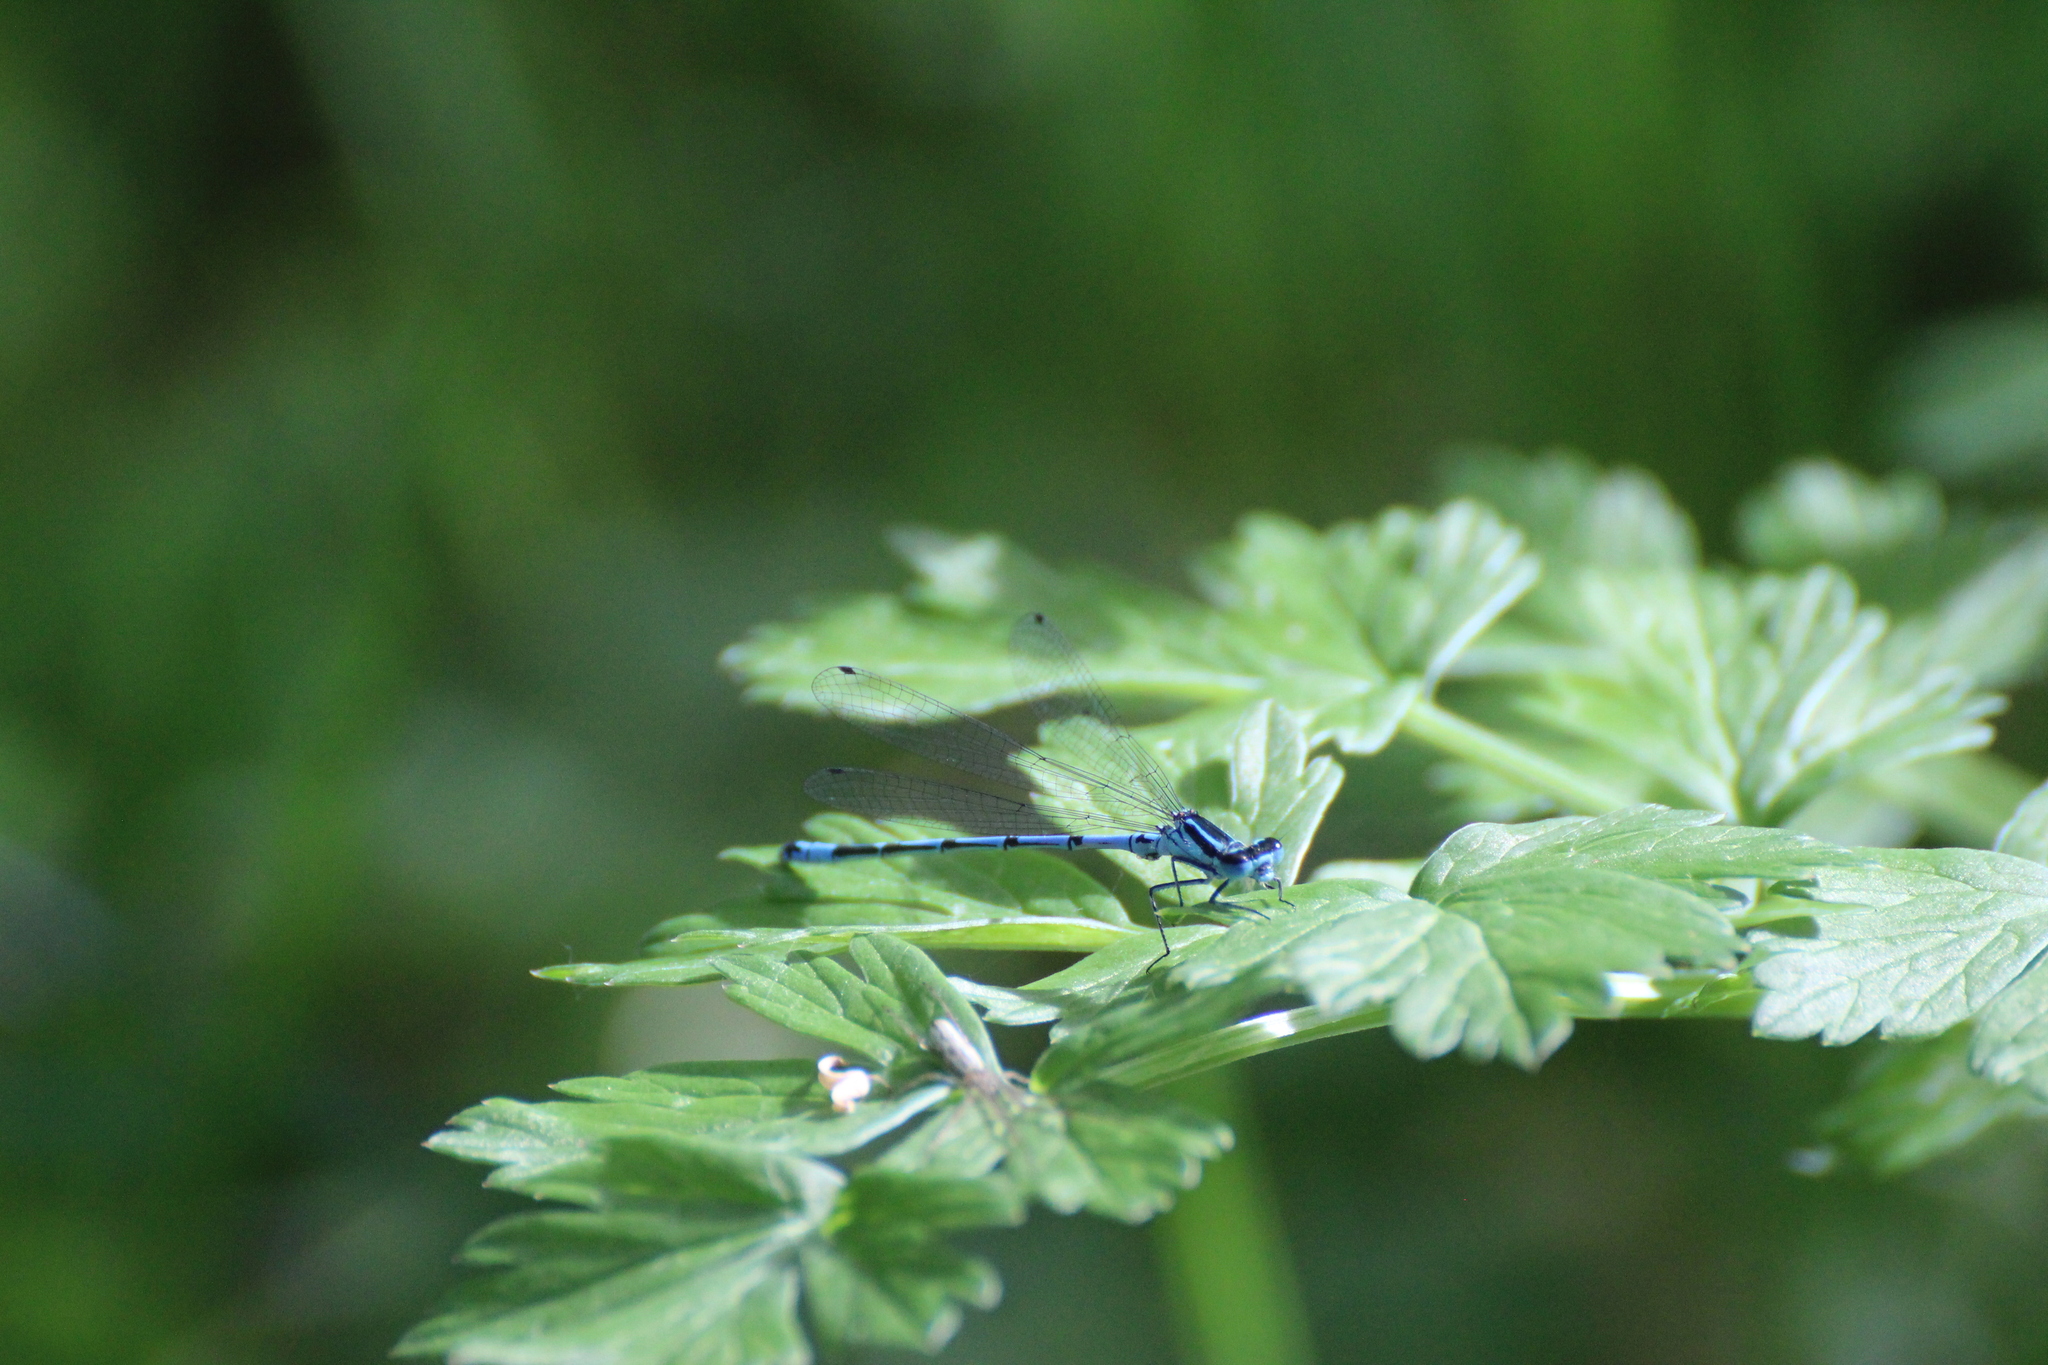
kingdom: Animalia
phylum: Arthropoda
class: Insecta
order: Odonata
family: Coenagrionidae
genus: Coenagrion
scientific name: Coenagrion puella
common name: Azure damselfly
